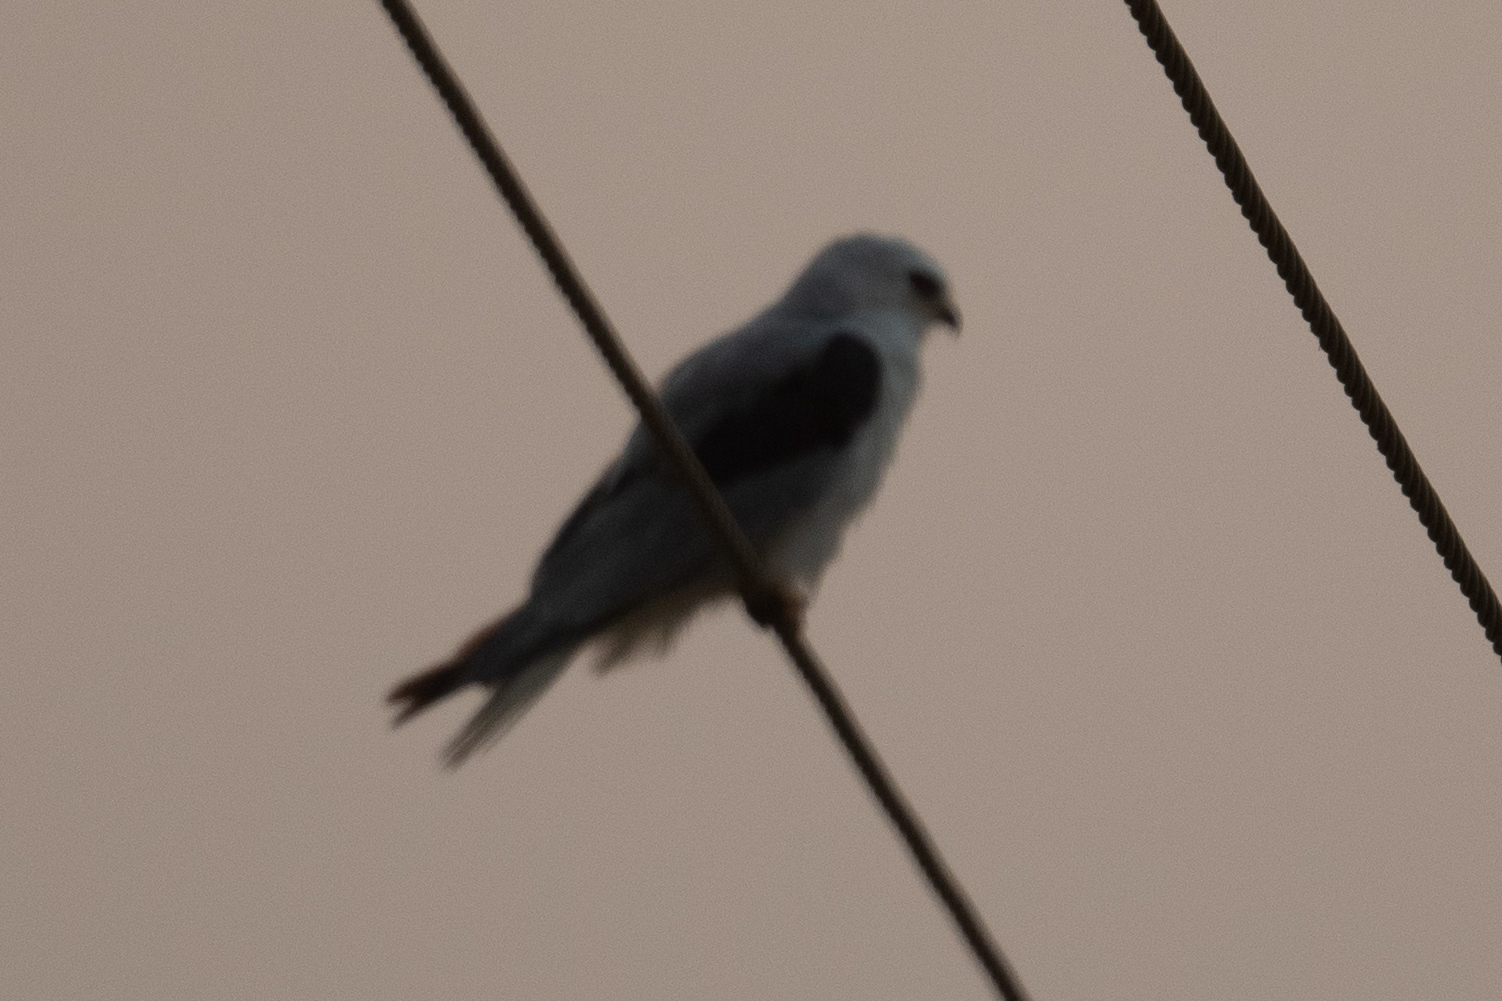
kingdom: Animalia
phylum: Chordata
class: Aves
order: Accipitriformes
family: Accipitridae
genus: Elanus
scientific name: Elanus leucurus
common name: White-tailed kite
